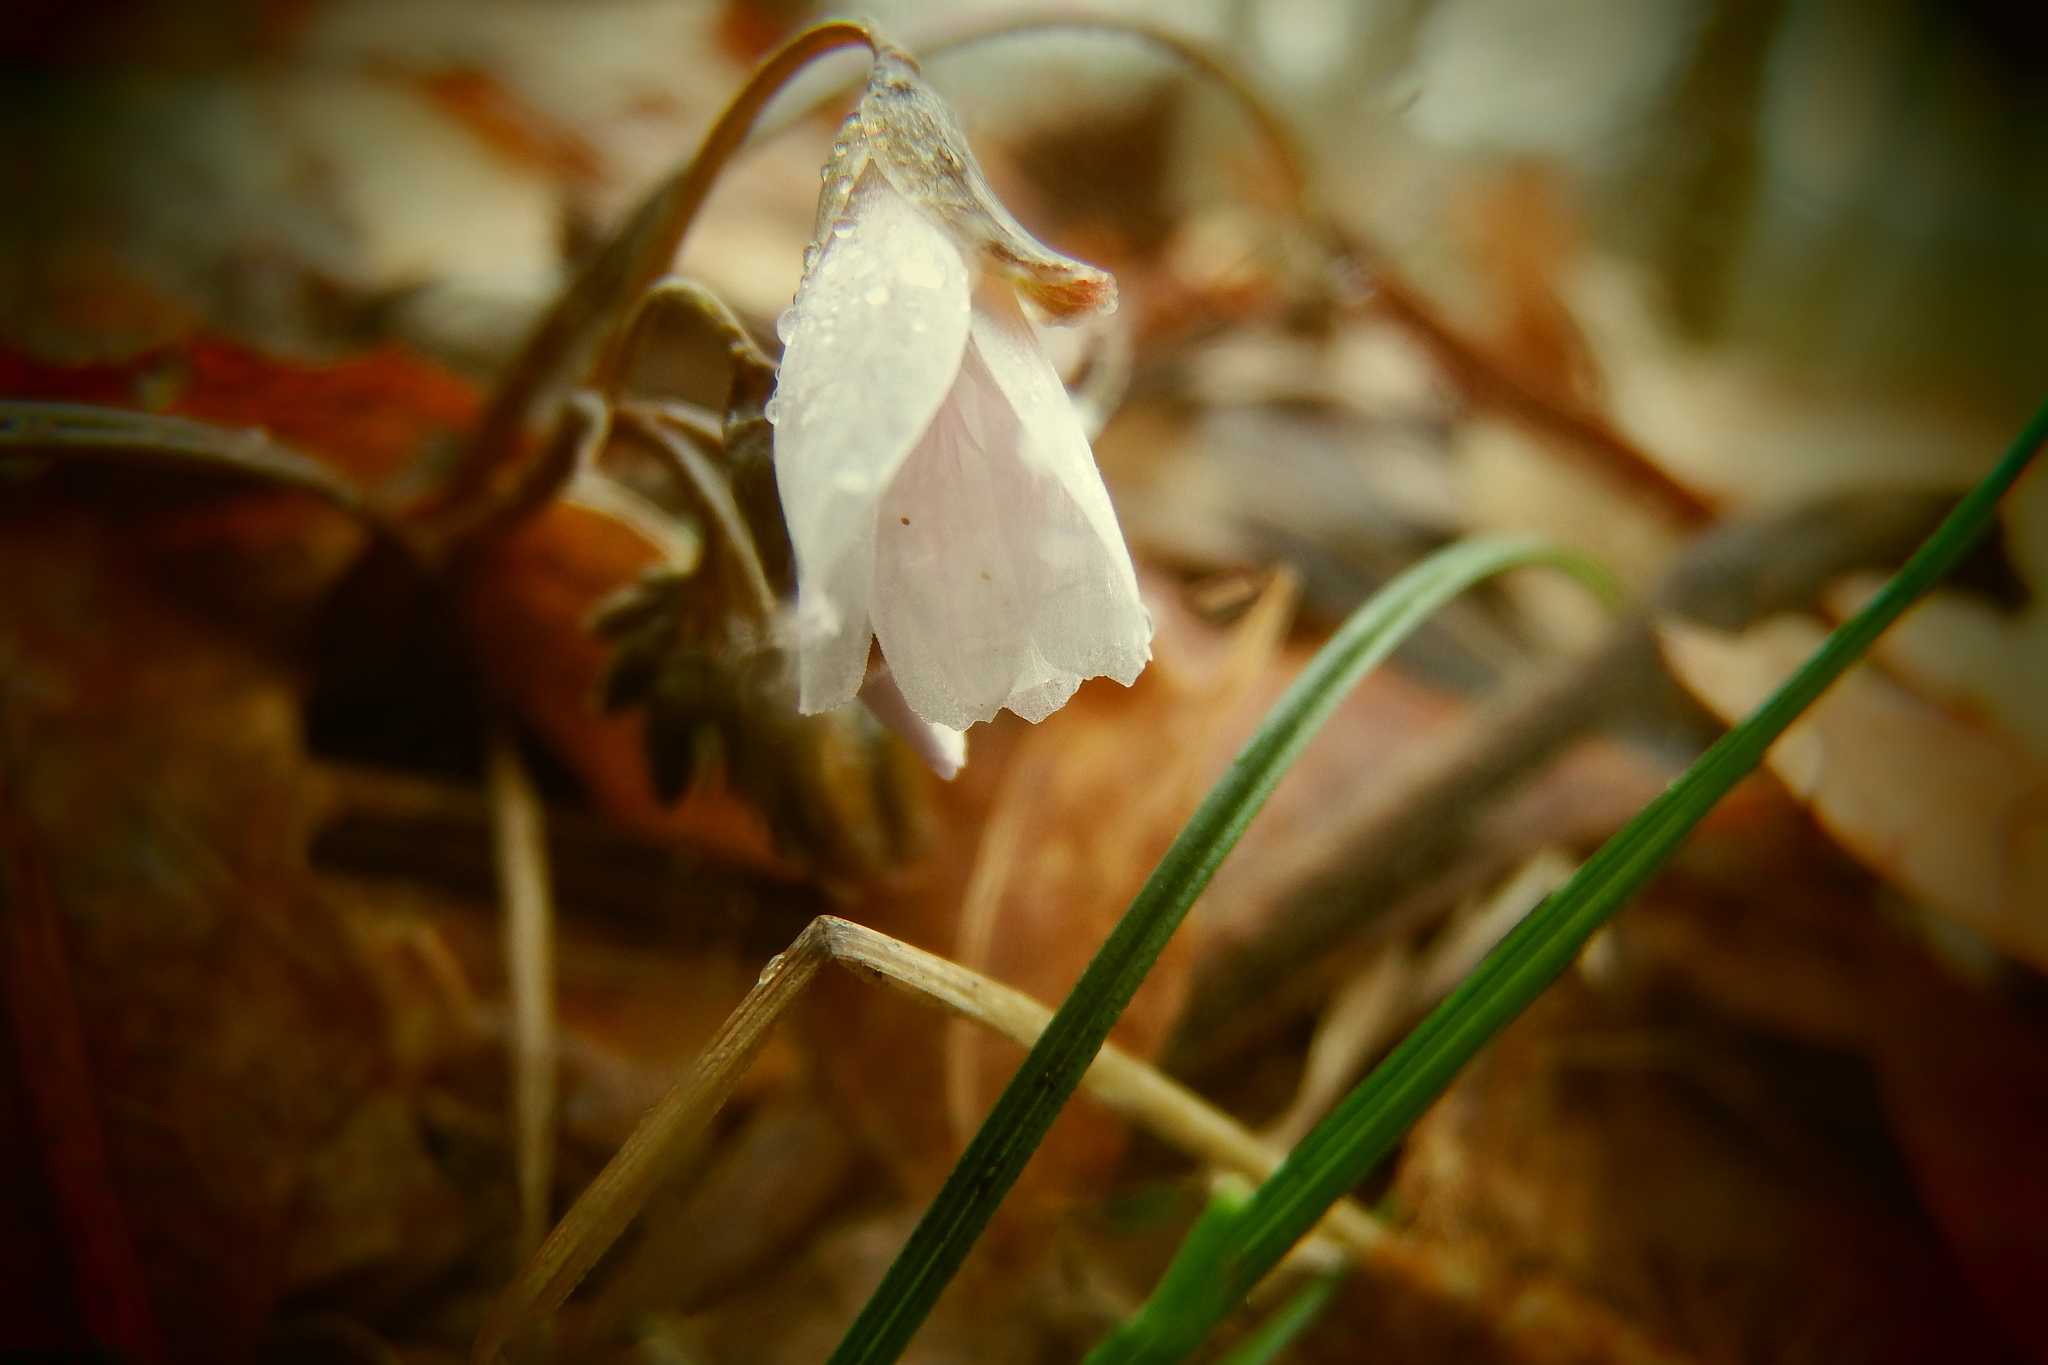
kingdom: Plantae
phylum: Tracheophyta
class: Magnoliopsida
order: Caryophyllales
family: Montiaceae
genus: Claytonia
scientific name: Claytonia virginica
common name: Virginia springbeauty
